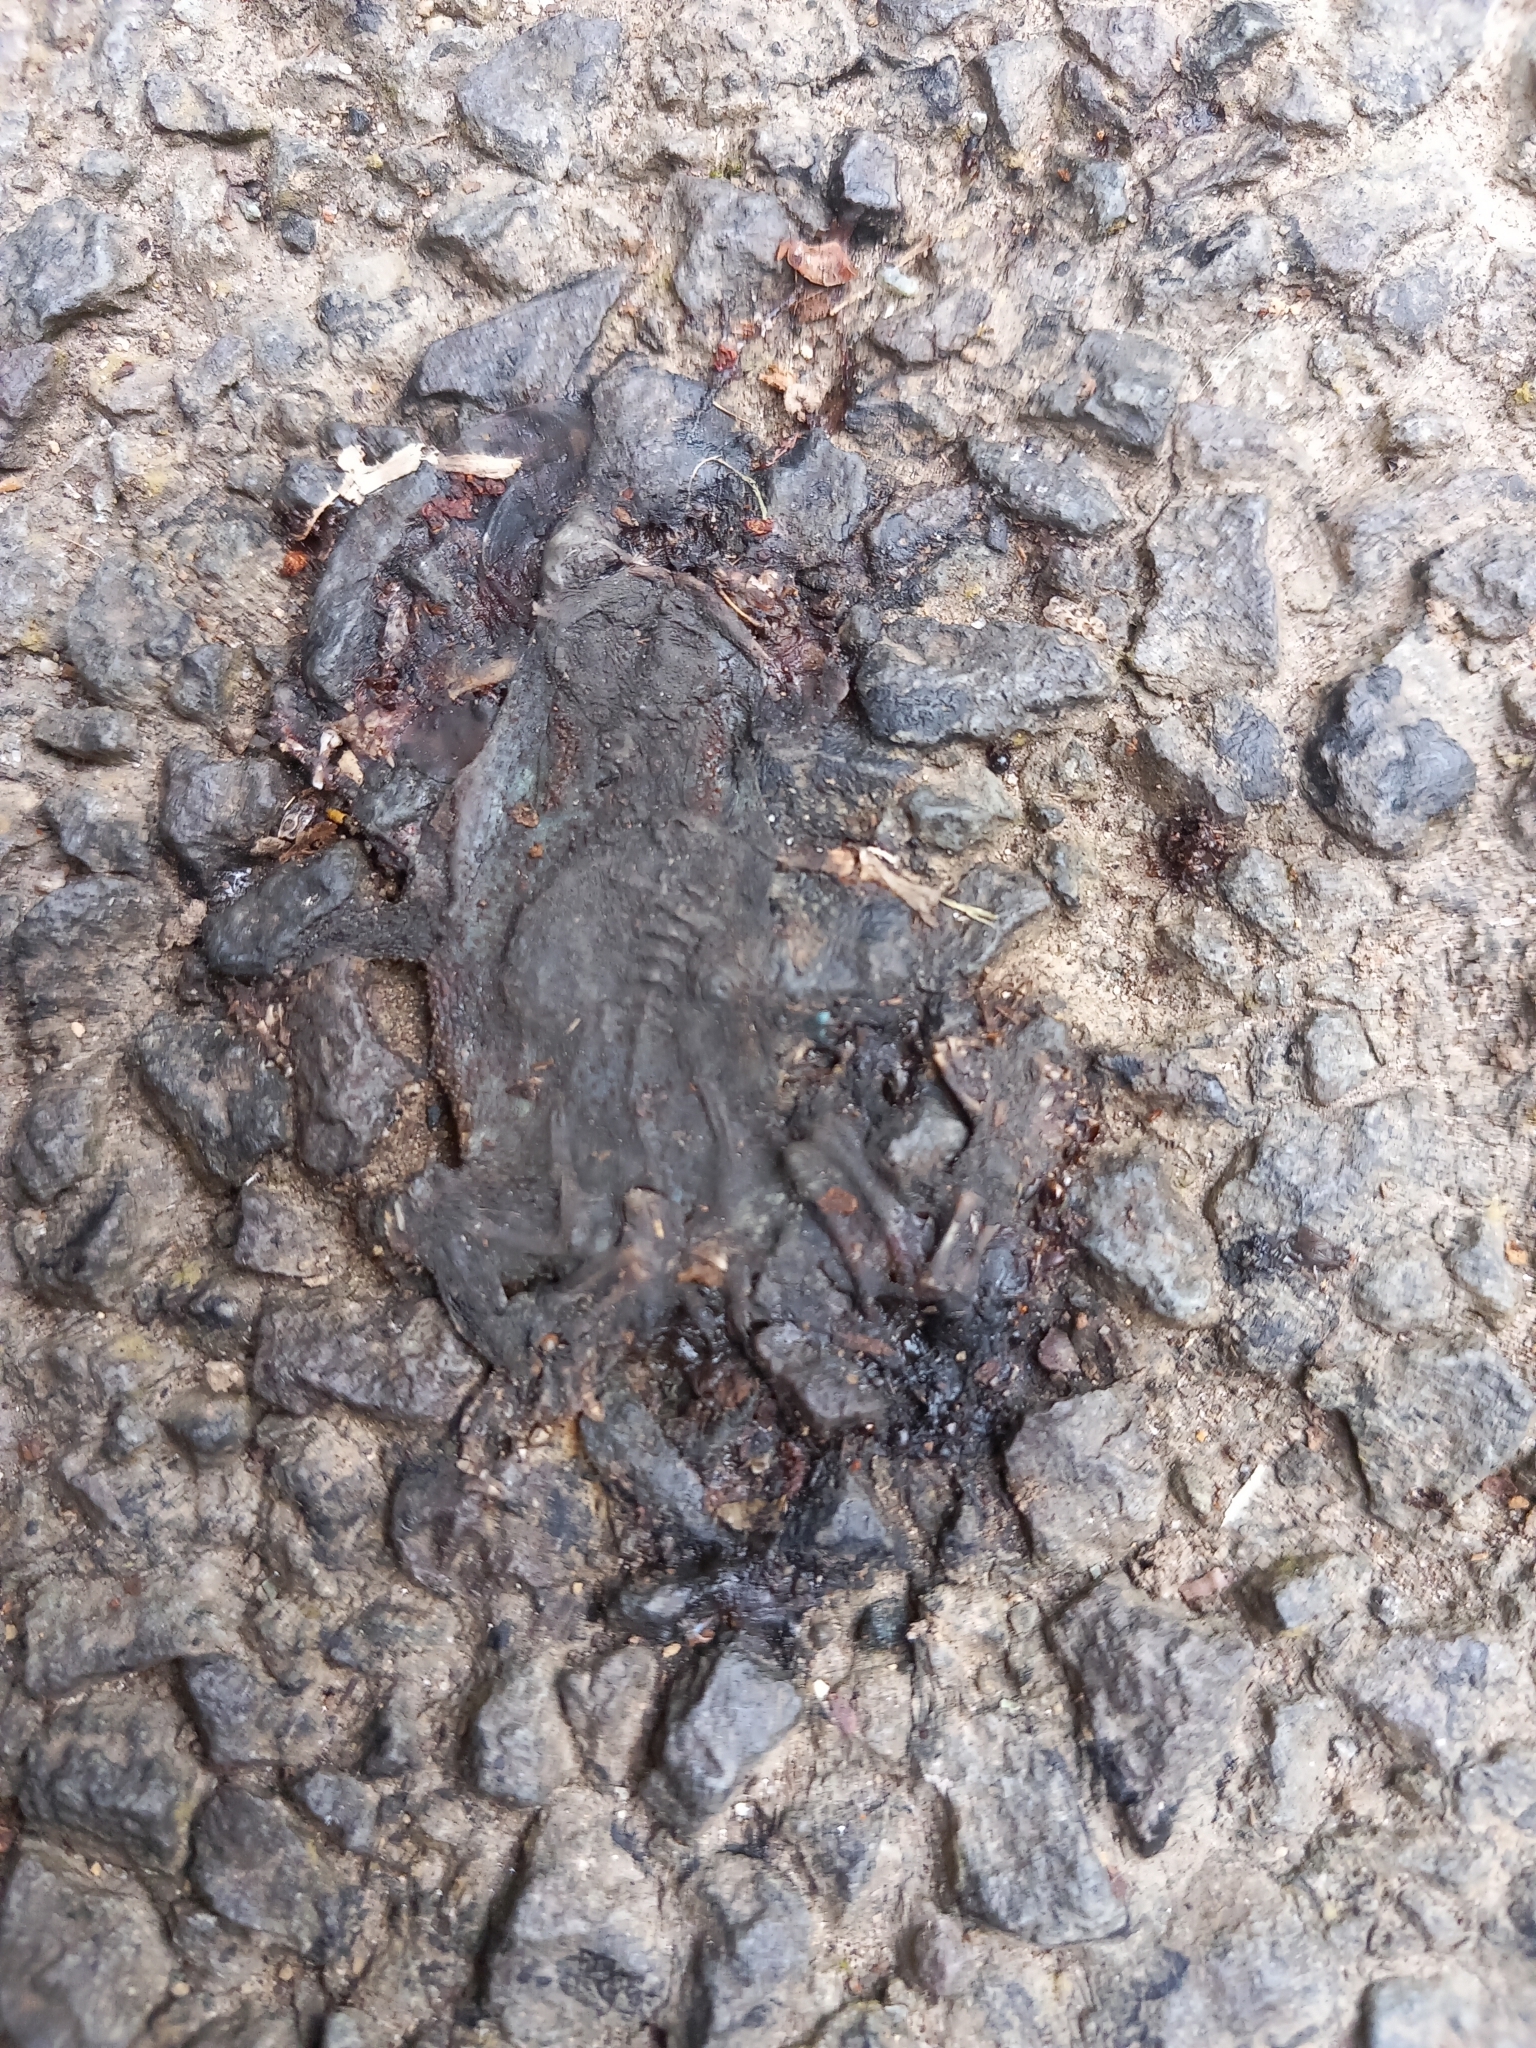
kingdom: Animalia
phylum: Chordata
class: Amphibia
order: Anura
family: Bufonidae
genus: Bufo
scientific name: Bufo bufo
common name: Common toad
